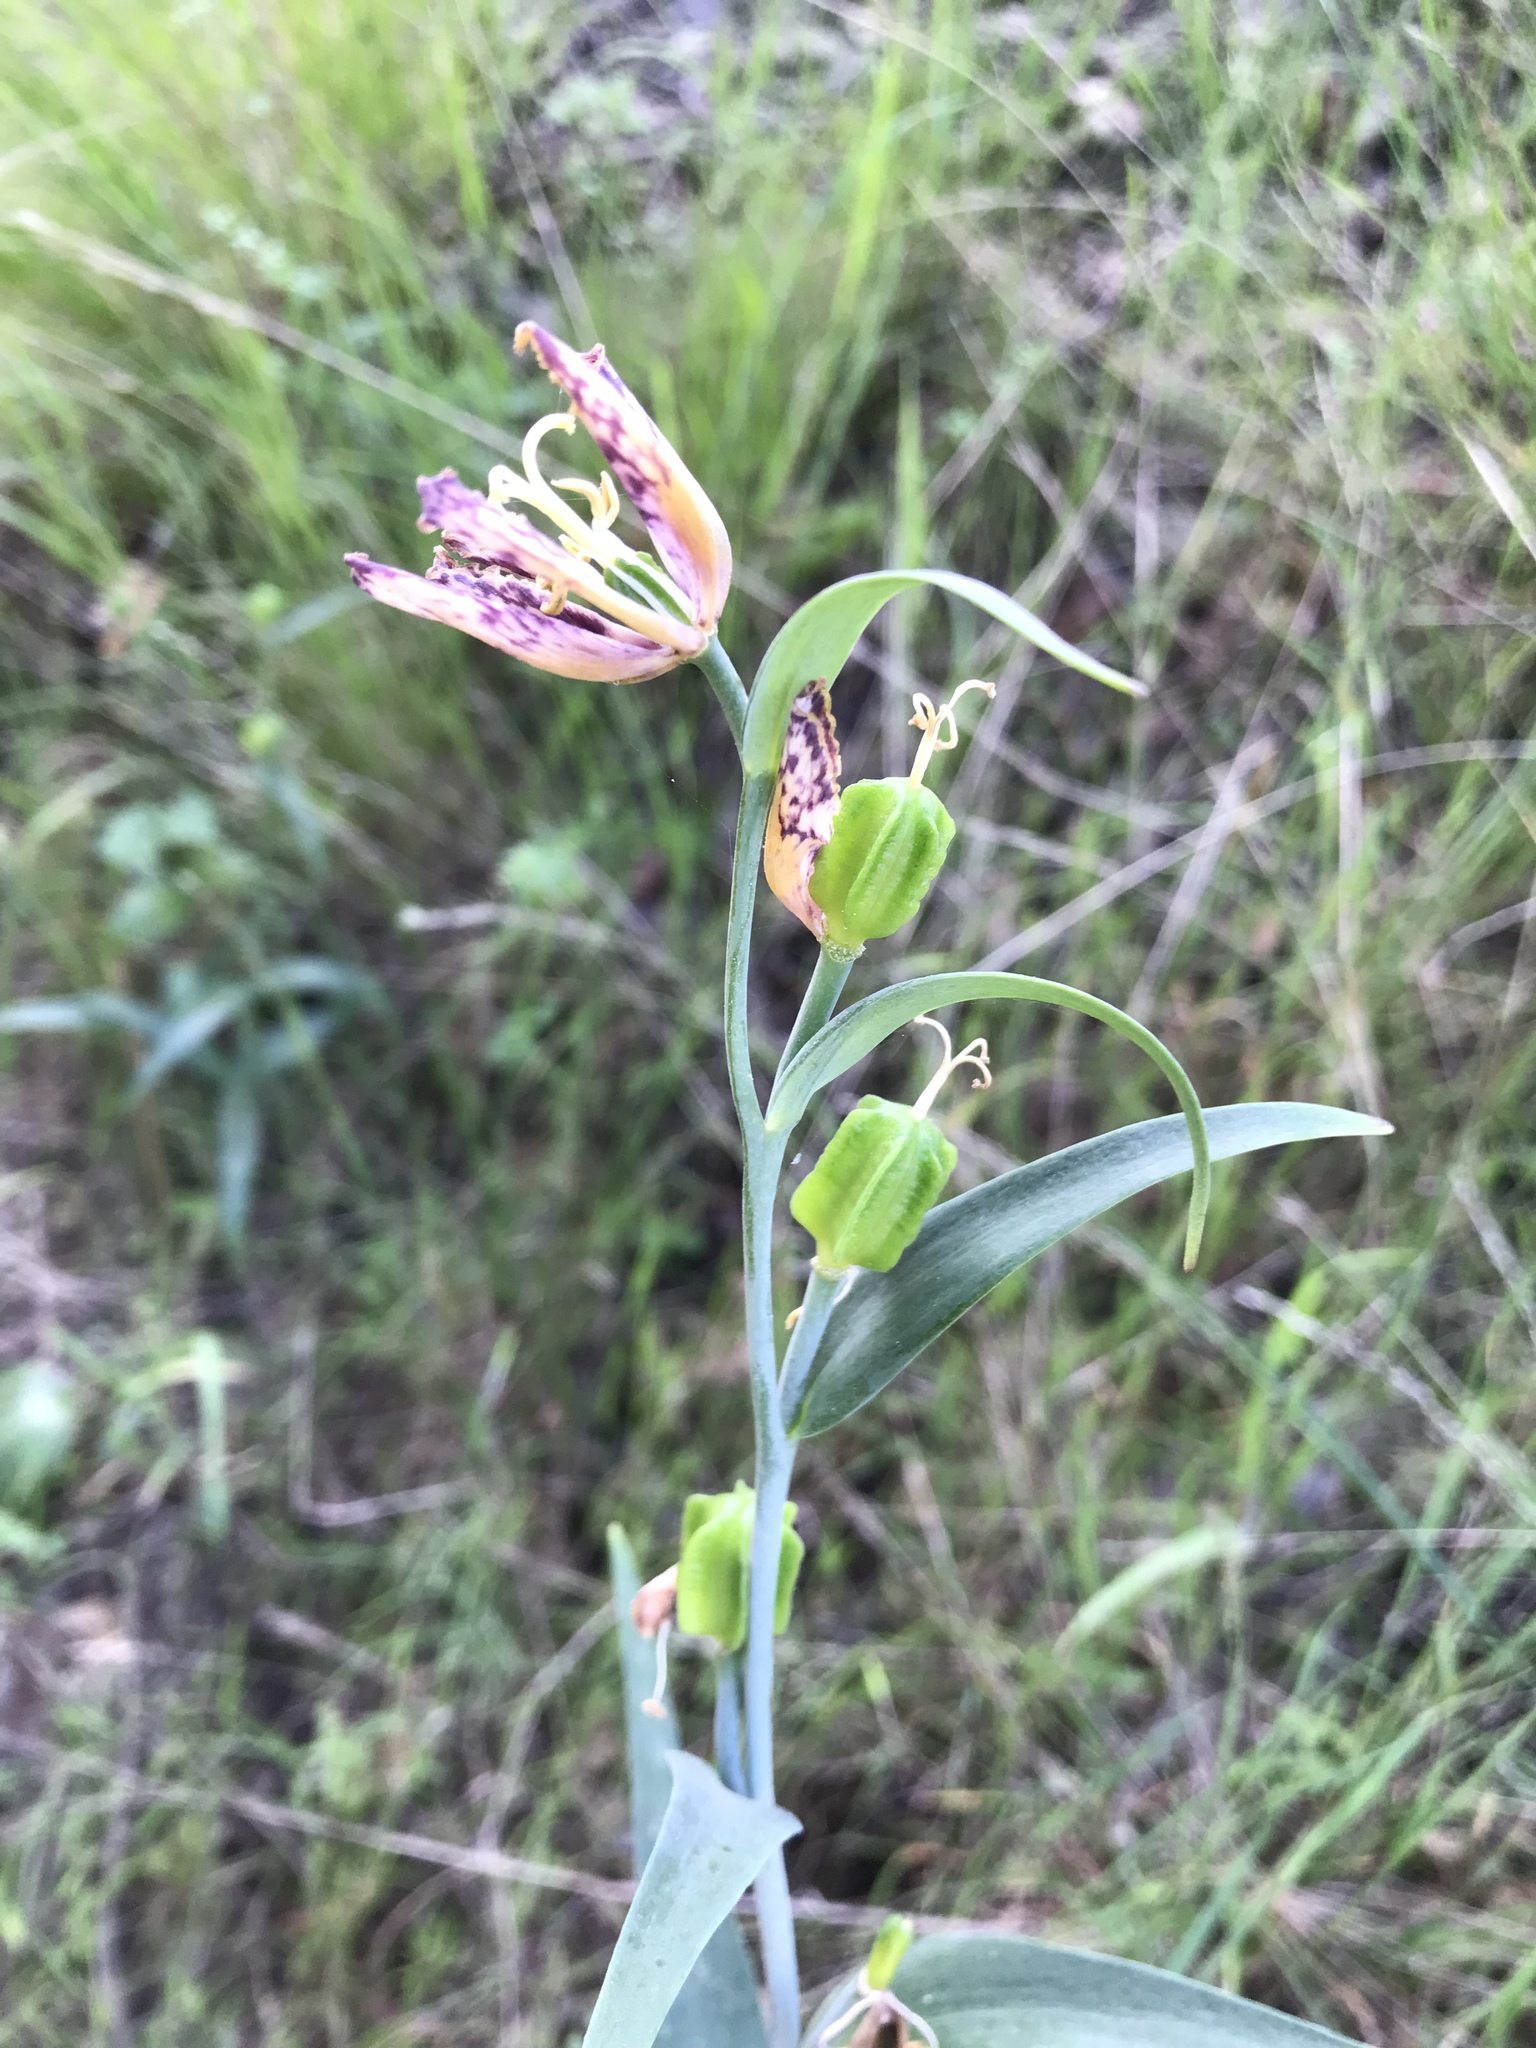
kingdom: Plantae
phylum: Tracheophyta
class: Liliopsida
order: Liliales
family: Liliaceae
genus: Fritillaria
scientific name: Fritillaria affinis
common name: Ojai fritillary
